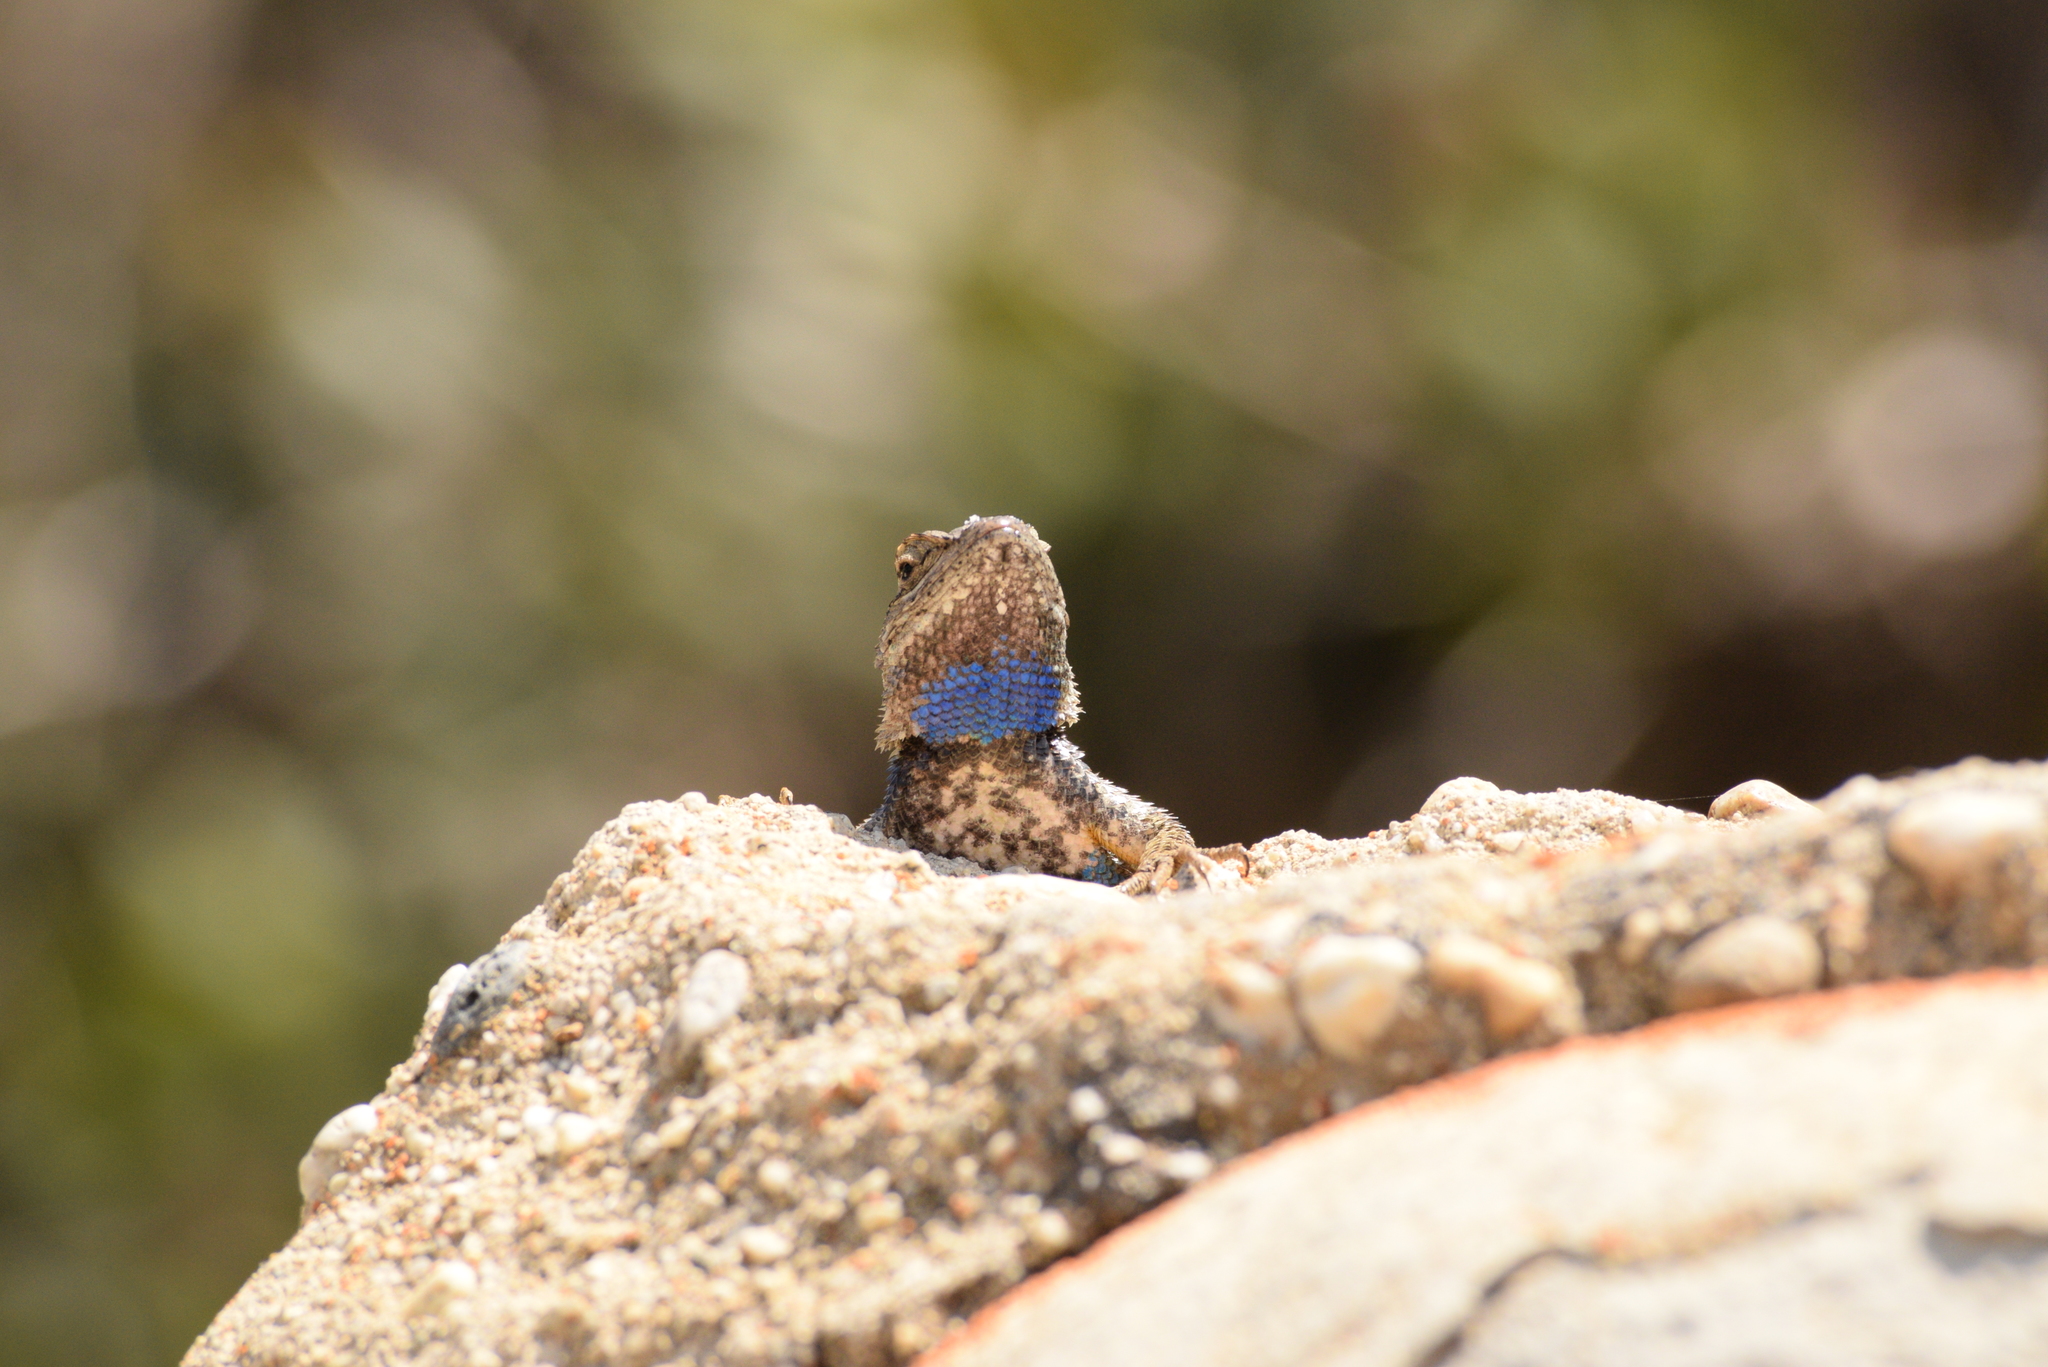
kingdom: Animalia
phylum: Chordata
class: Squamata
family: Phrynosomatidae
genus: Sceloporus
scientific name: Sceloporus occidentalis
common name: Western fence lizard
